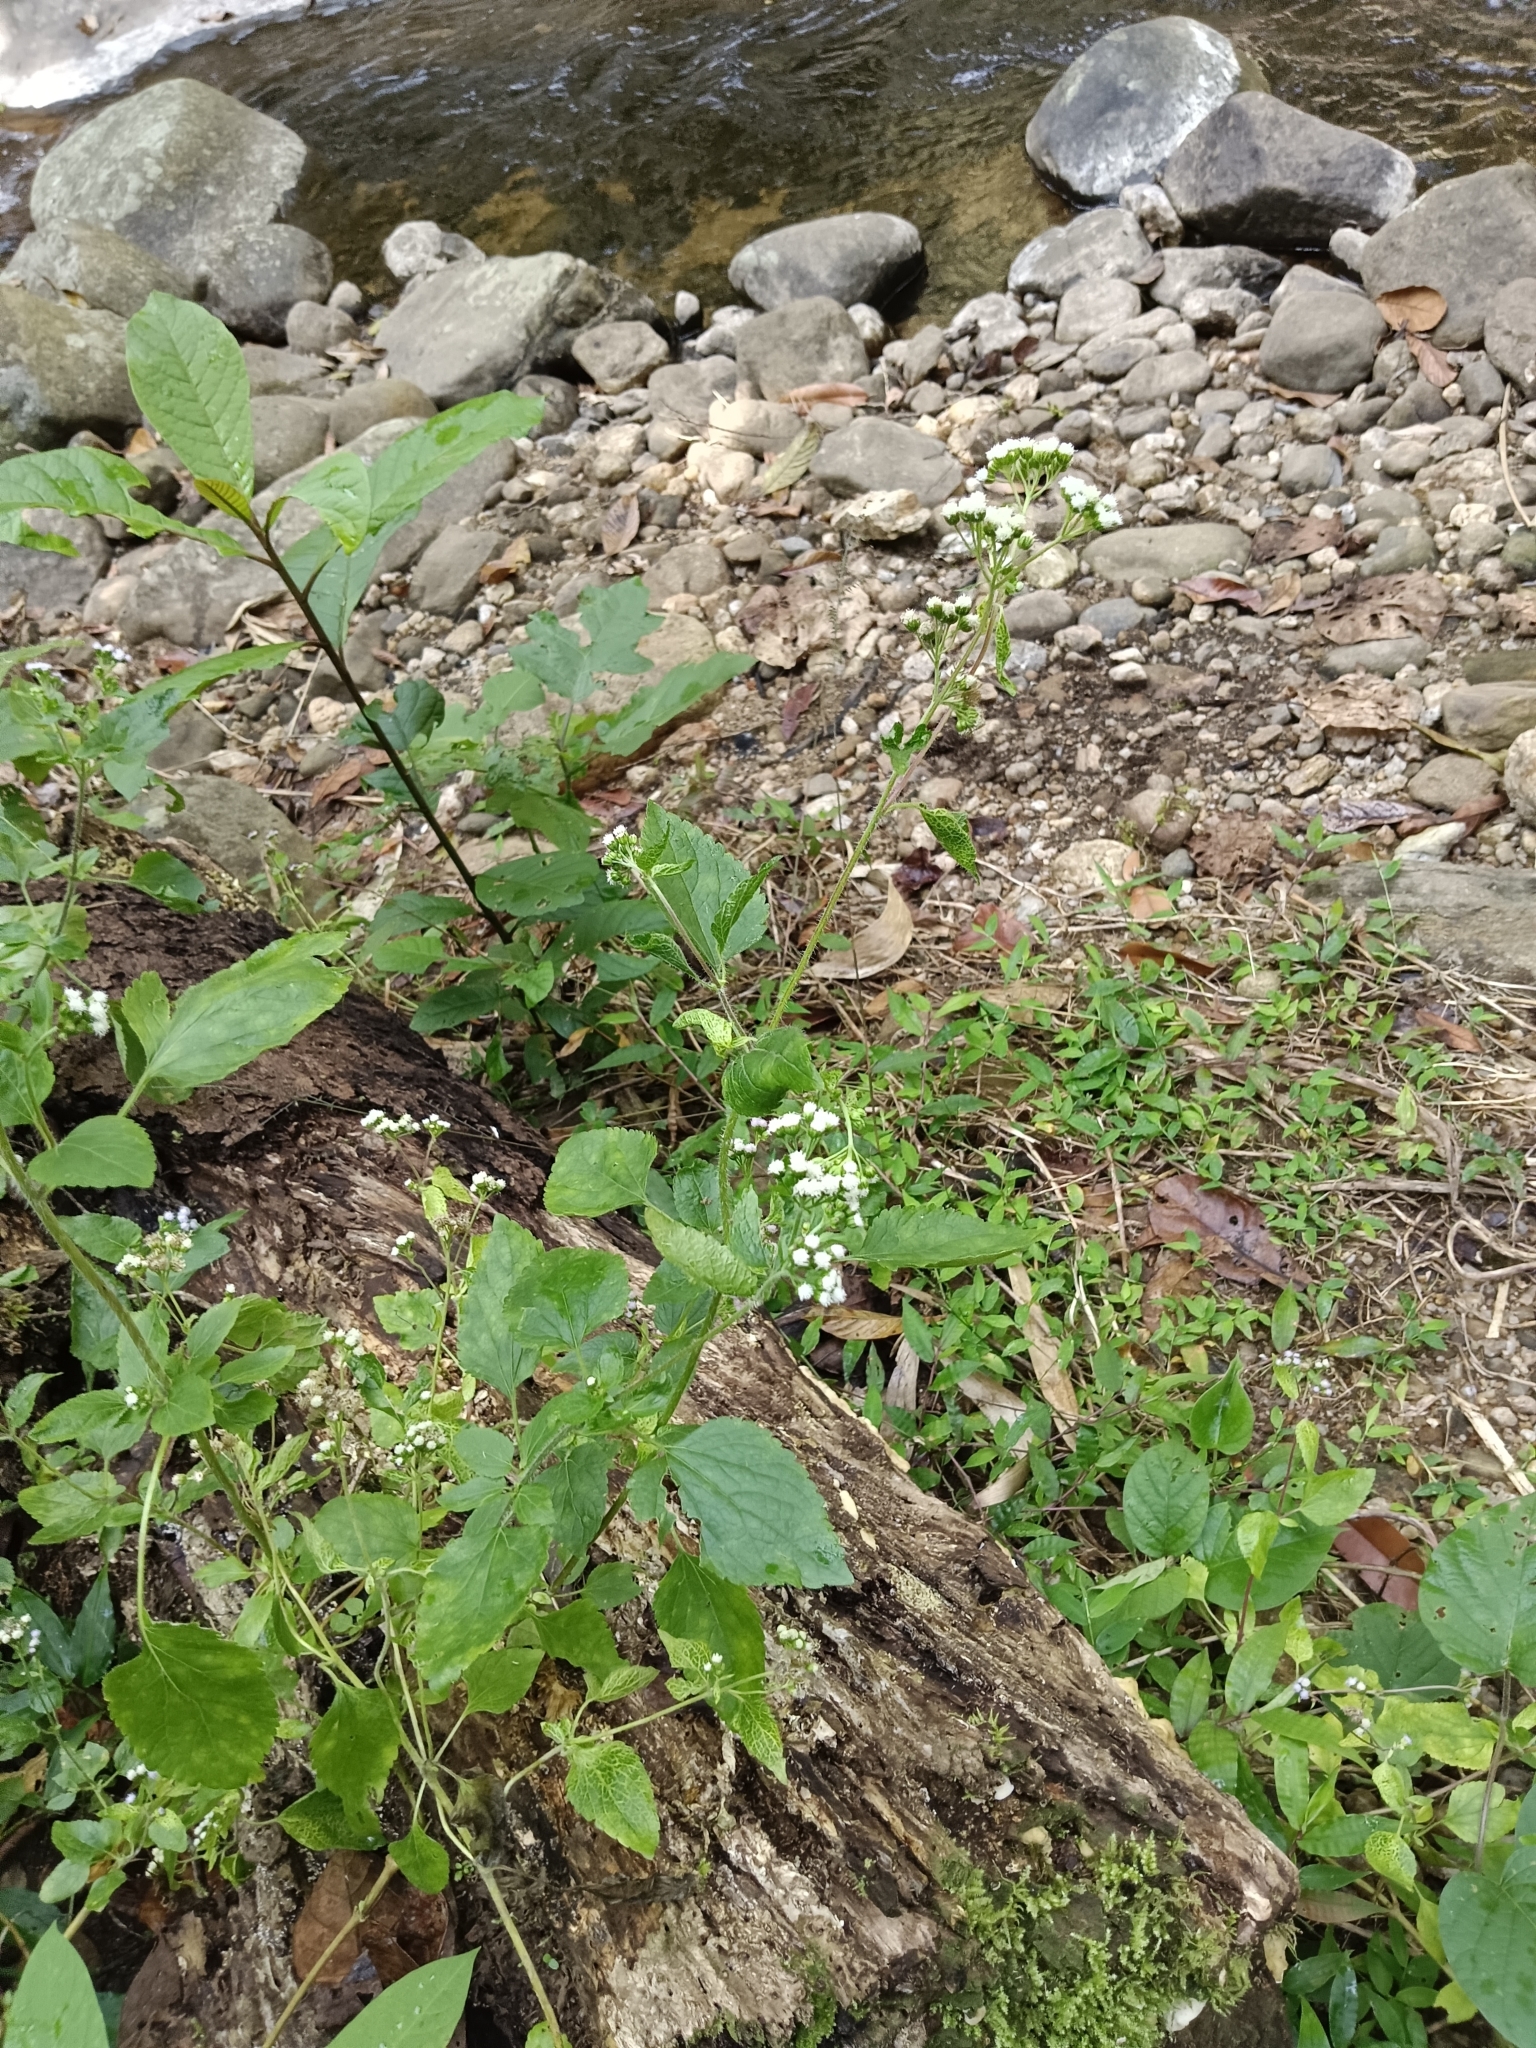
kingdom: Plantae
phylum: Tracheophyta
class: Magnoliopsida
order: Asterales
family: Asteraceae
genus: Ageratum
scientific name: Ageratum conyzoides
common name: Tropical whiteweed
